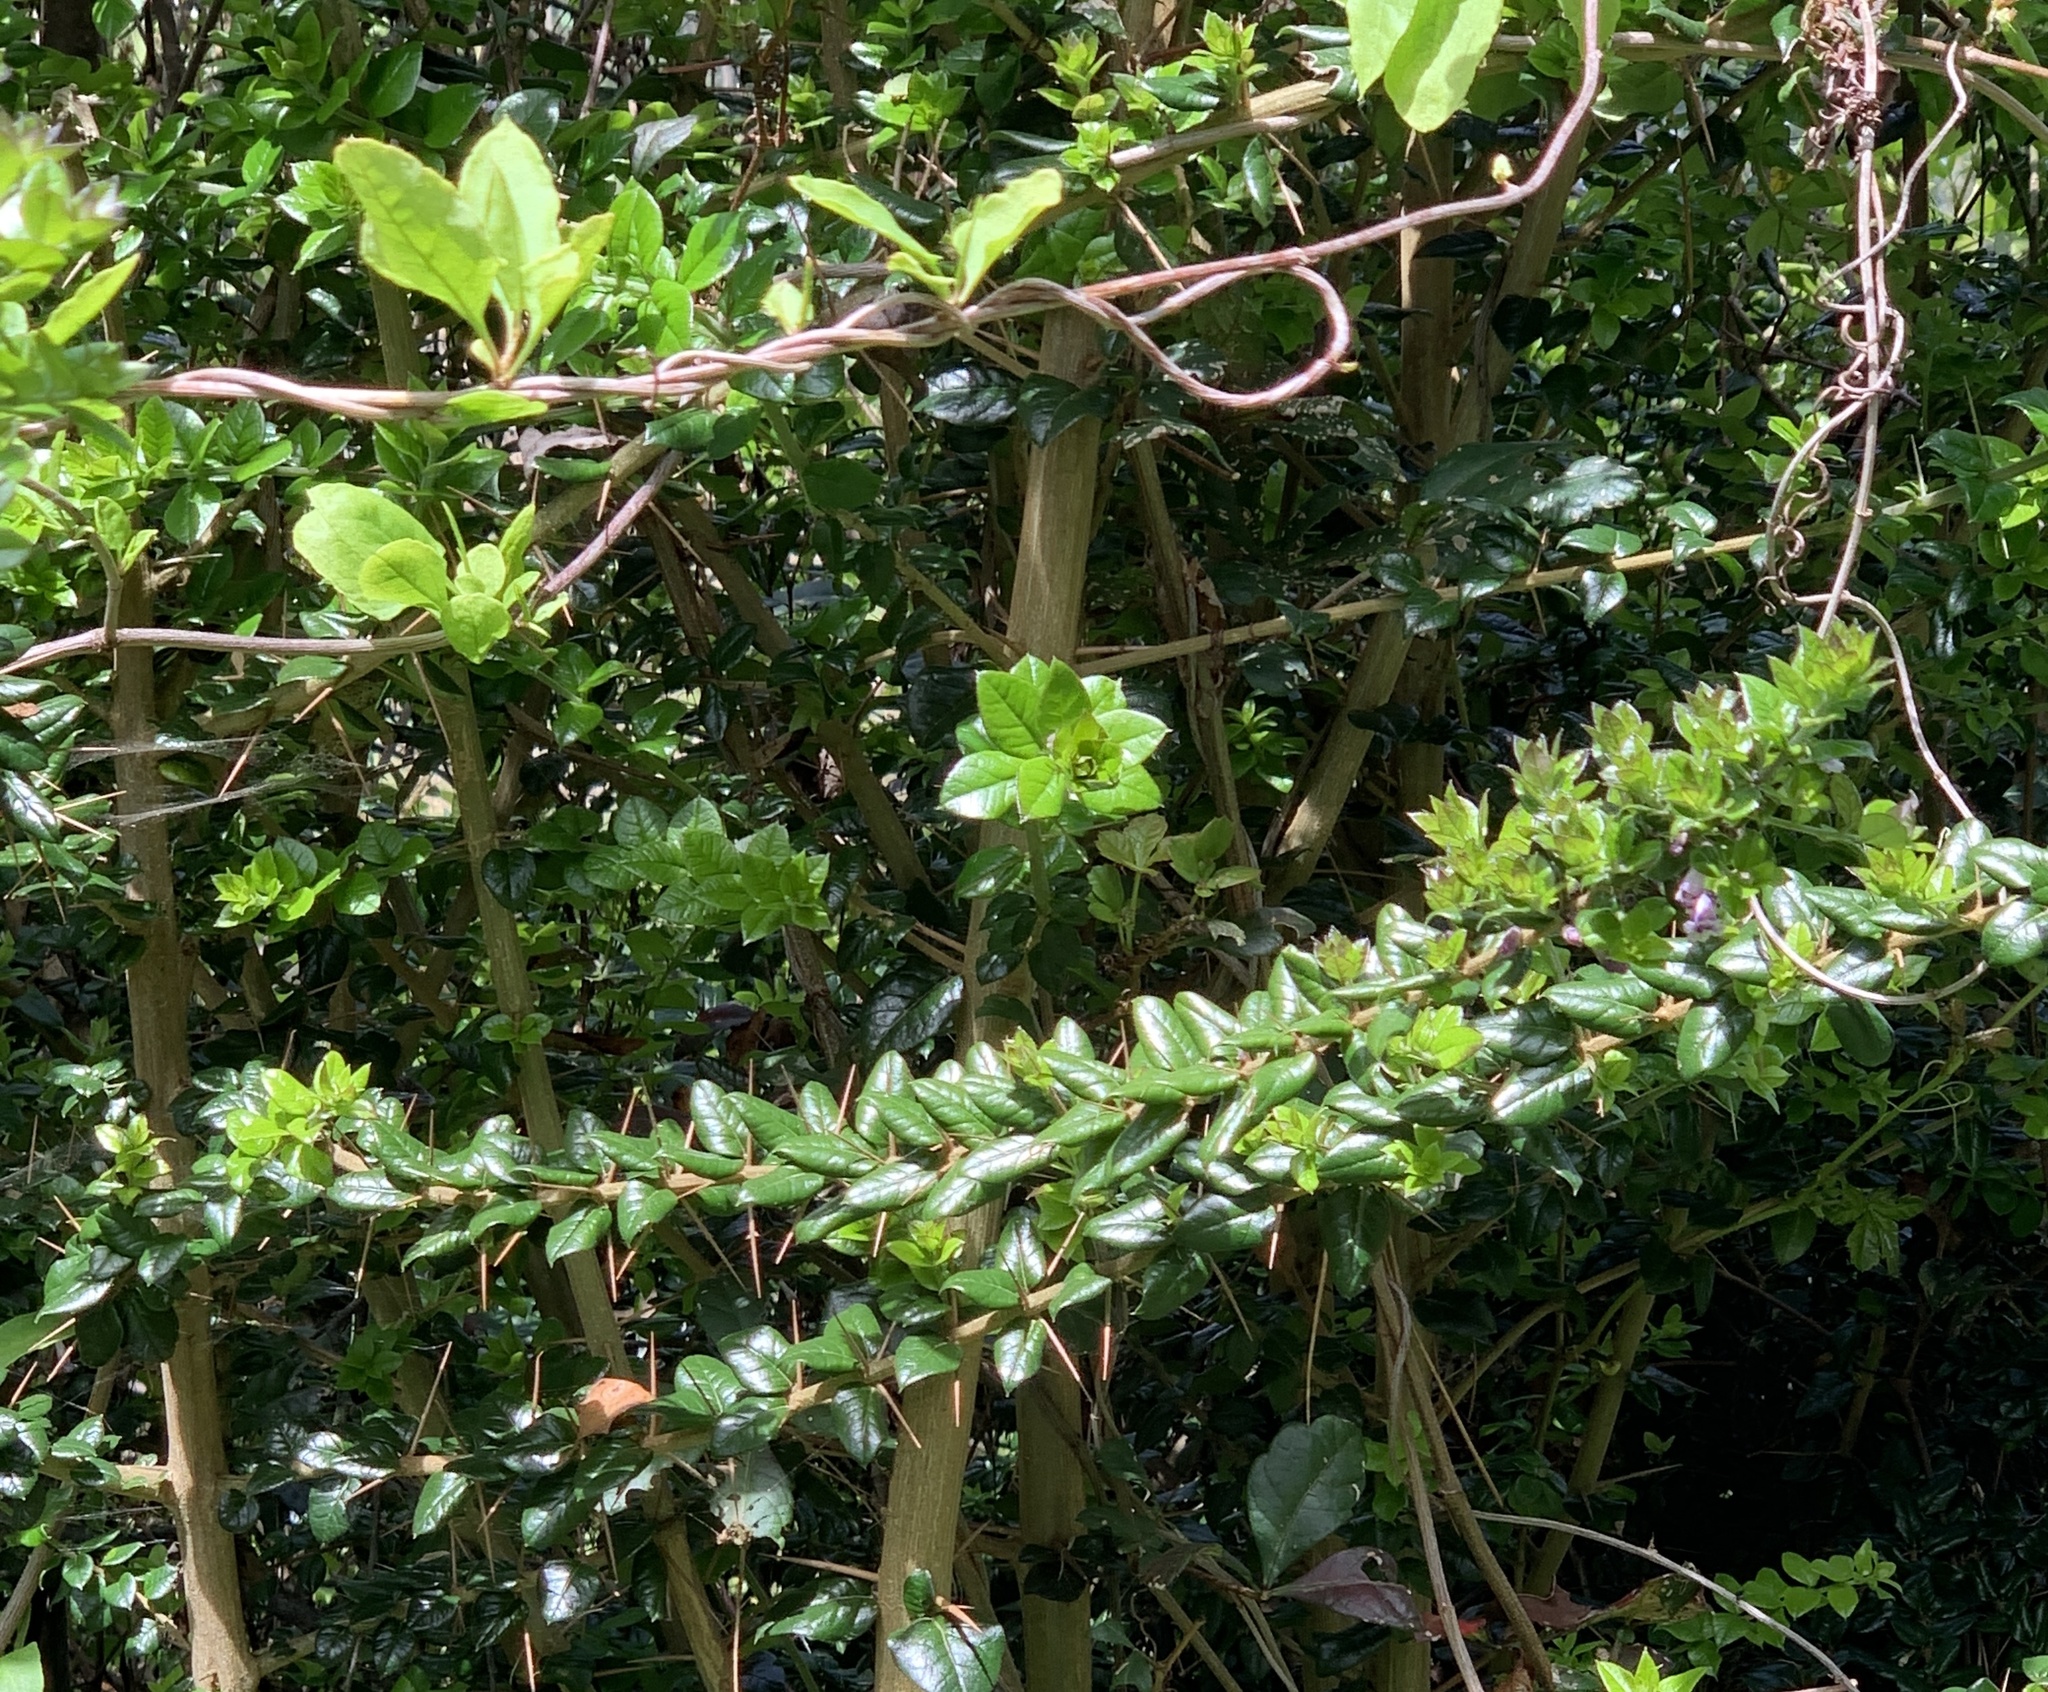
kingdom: Plantae
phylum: Tracheophyta
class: Magnoliopsida
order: Lamiales
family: Verbenaceae
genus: Rhaphithamnus
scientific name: Rhaphithamnus spinosus
